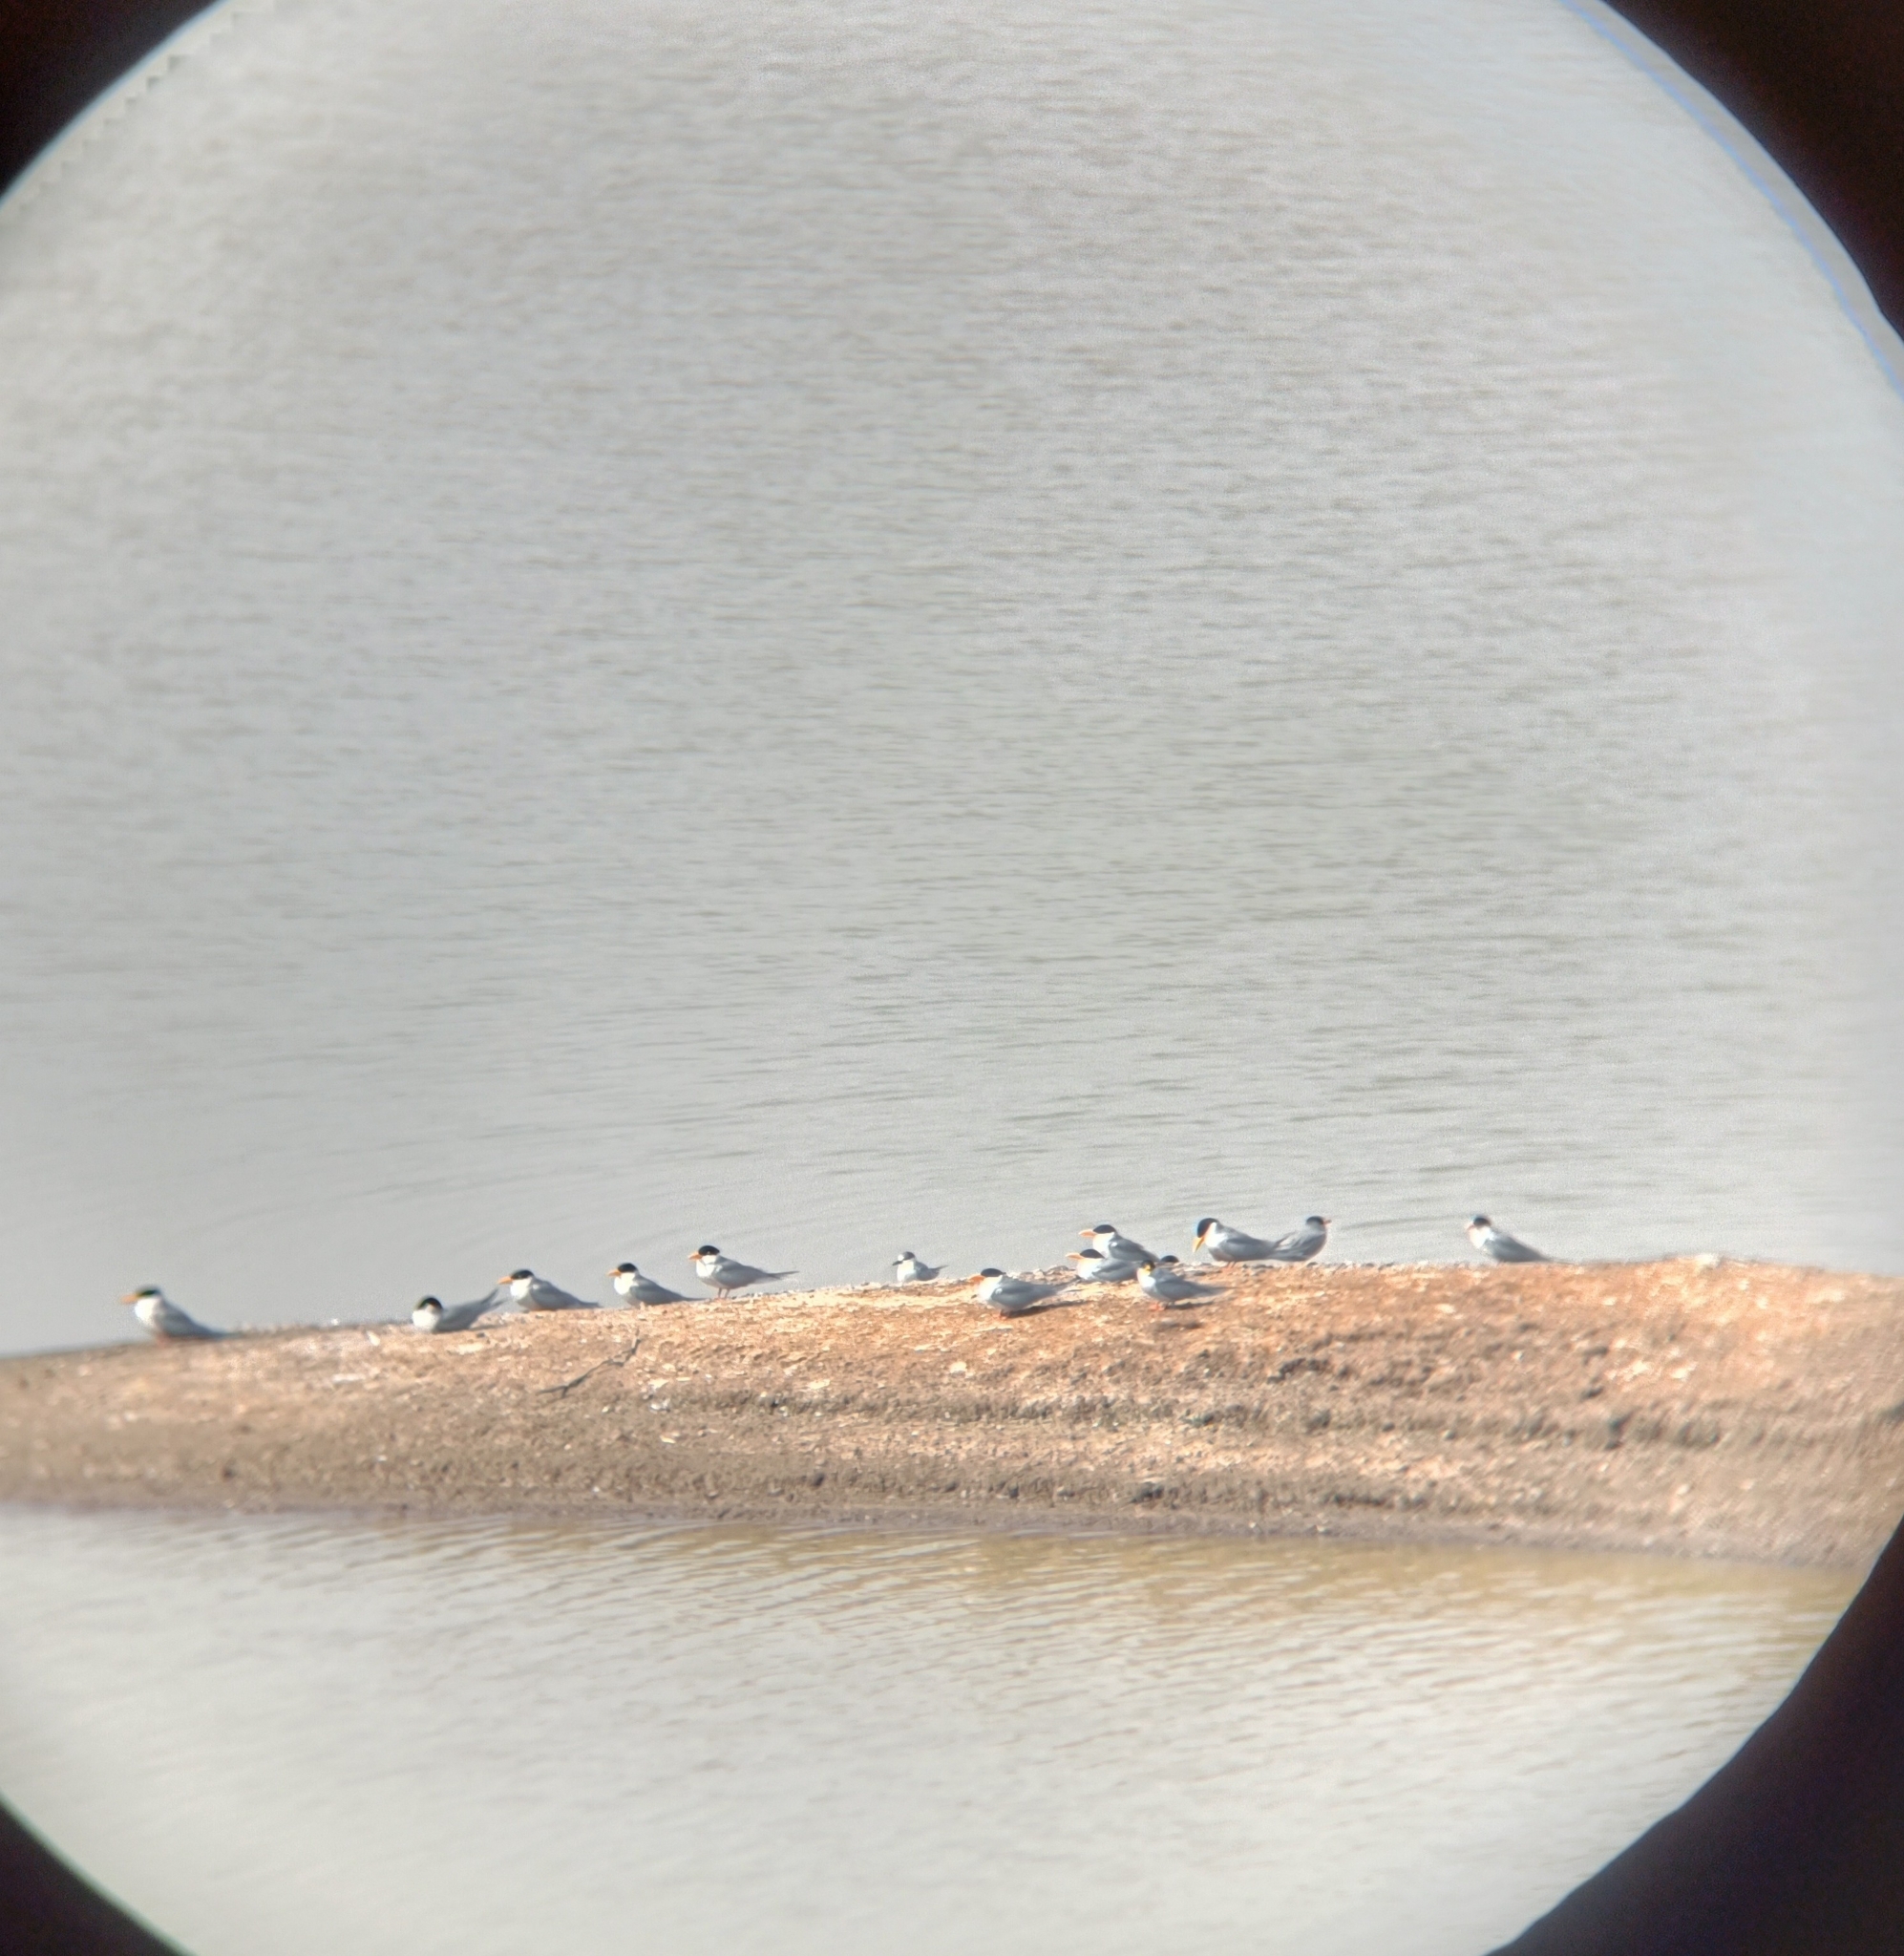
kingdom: Animalia
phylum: Chordata
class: Aves
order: Charadriiformes
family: Laridae
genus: Sterna
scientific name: Sterna aurantia
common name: River tern
